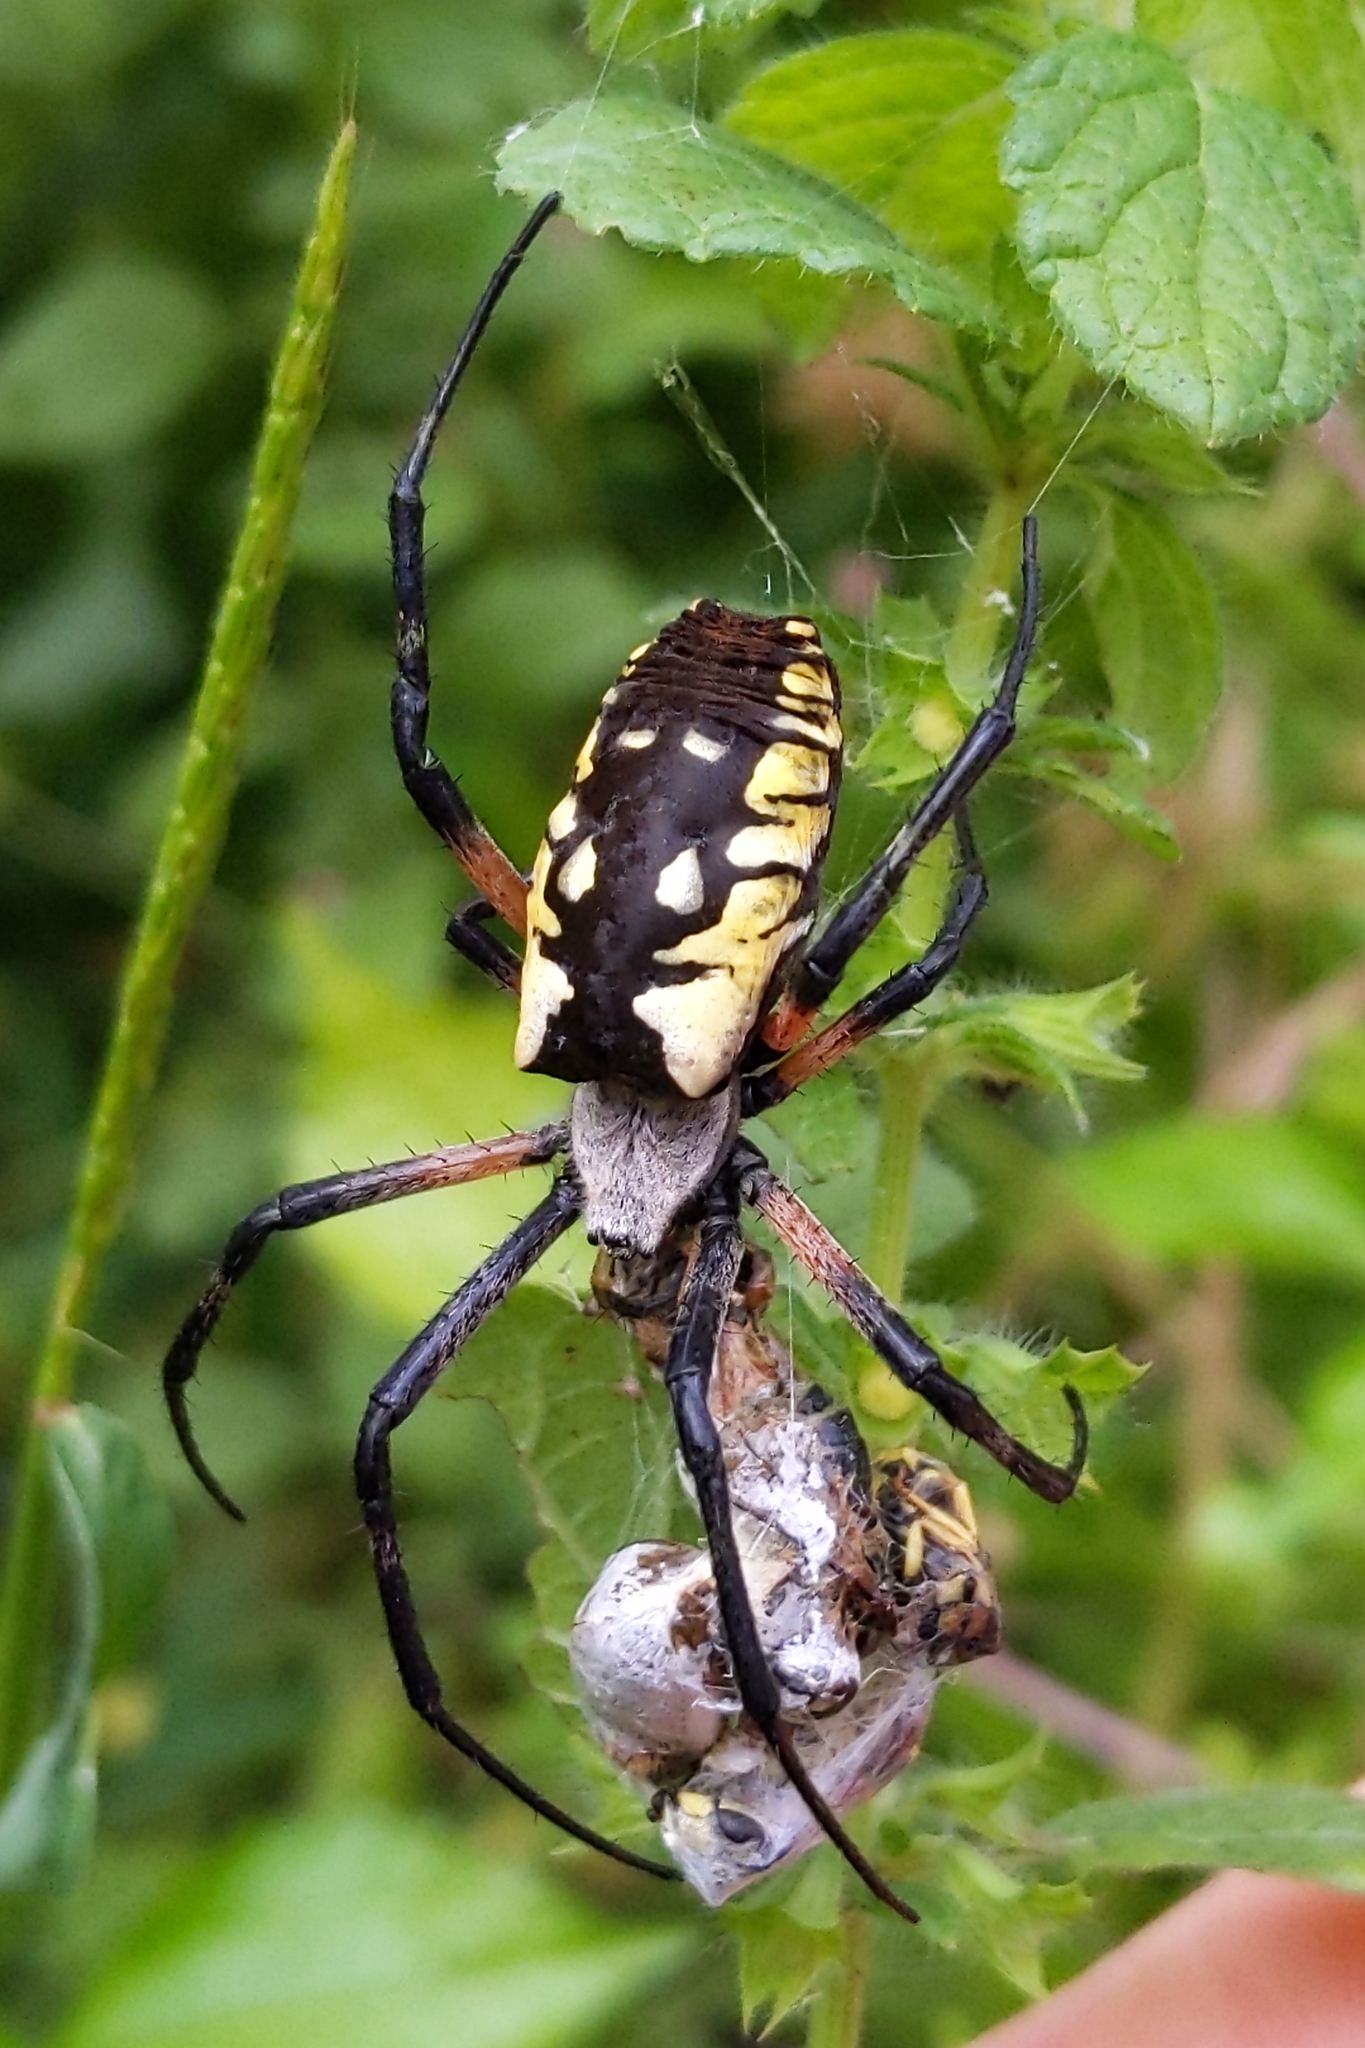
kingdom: Animalia
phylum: Arthropoda
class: Arachnida
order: Araneae
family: Araneidae
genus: Argiope
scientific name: Argiope aurantia
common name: Orb weavers
